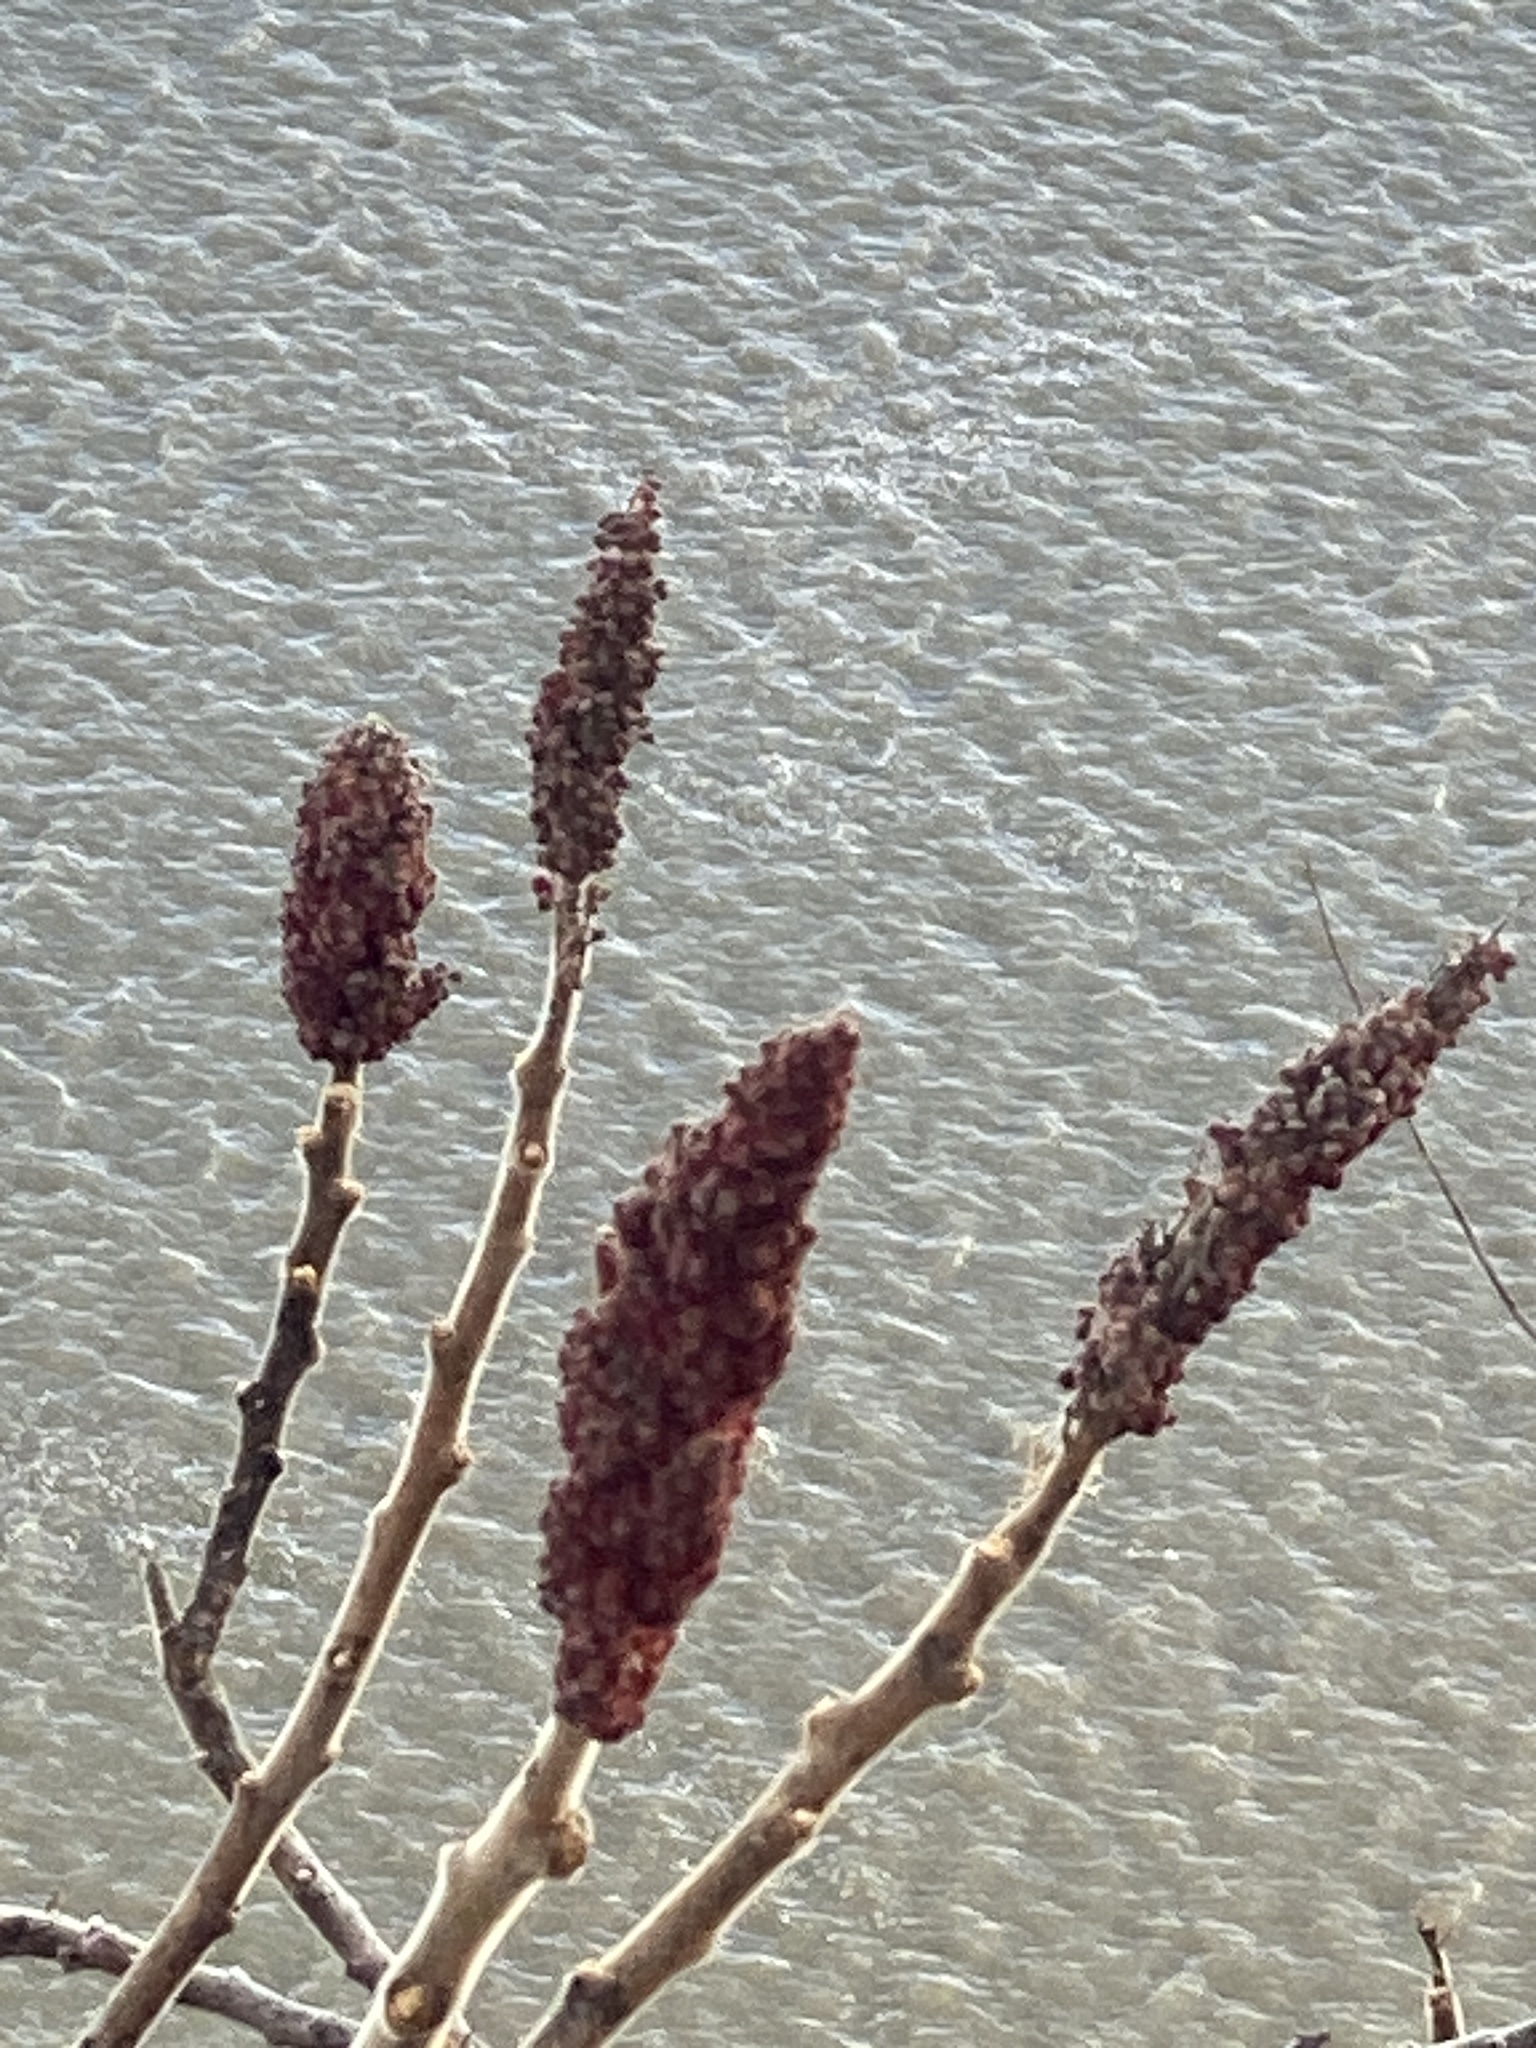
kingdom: Plantae
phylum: Tracheophyta
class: Magnoliopsida
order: Sapindales
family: Anacardiaceae
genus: Rhus
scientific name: Rhus typhina
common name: Staghorn sumac
